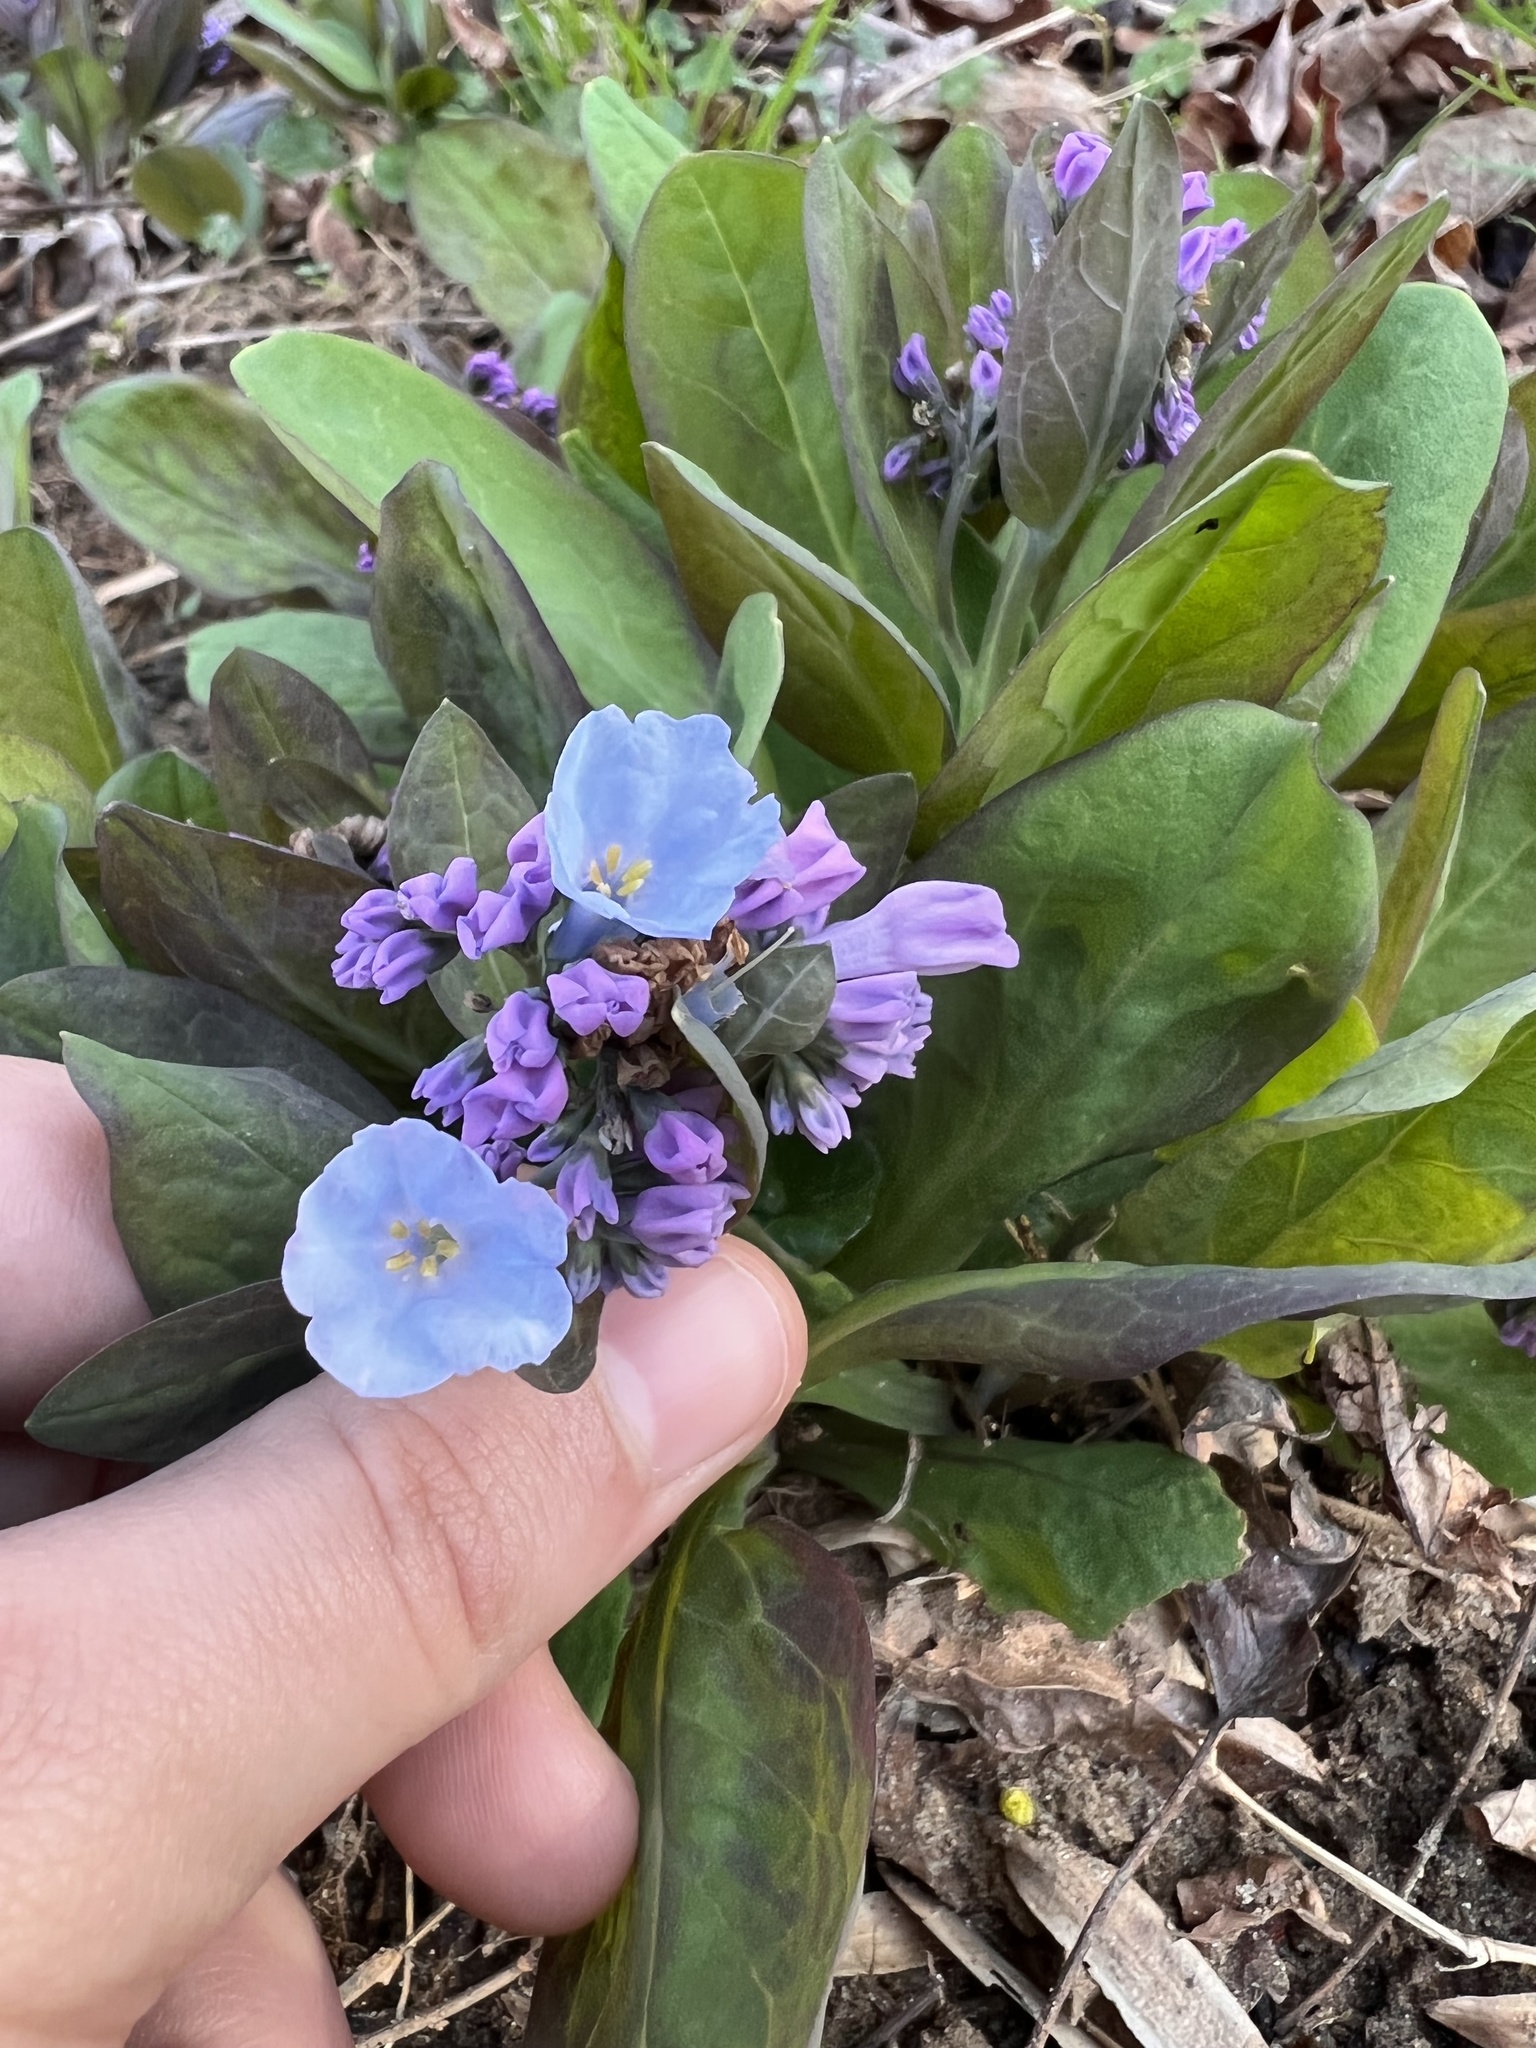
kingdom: Plantae
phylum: Tracheophyta
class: Magnoliopsida
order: Boraginales
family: Boraginaceae
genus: Mertensia
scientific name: Mertensia virginica
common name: Virginia bluebells
